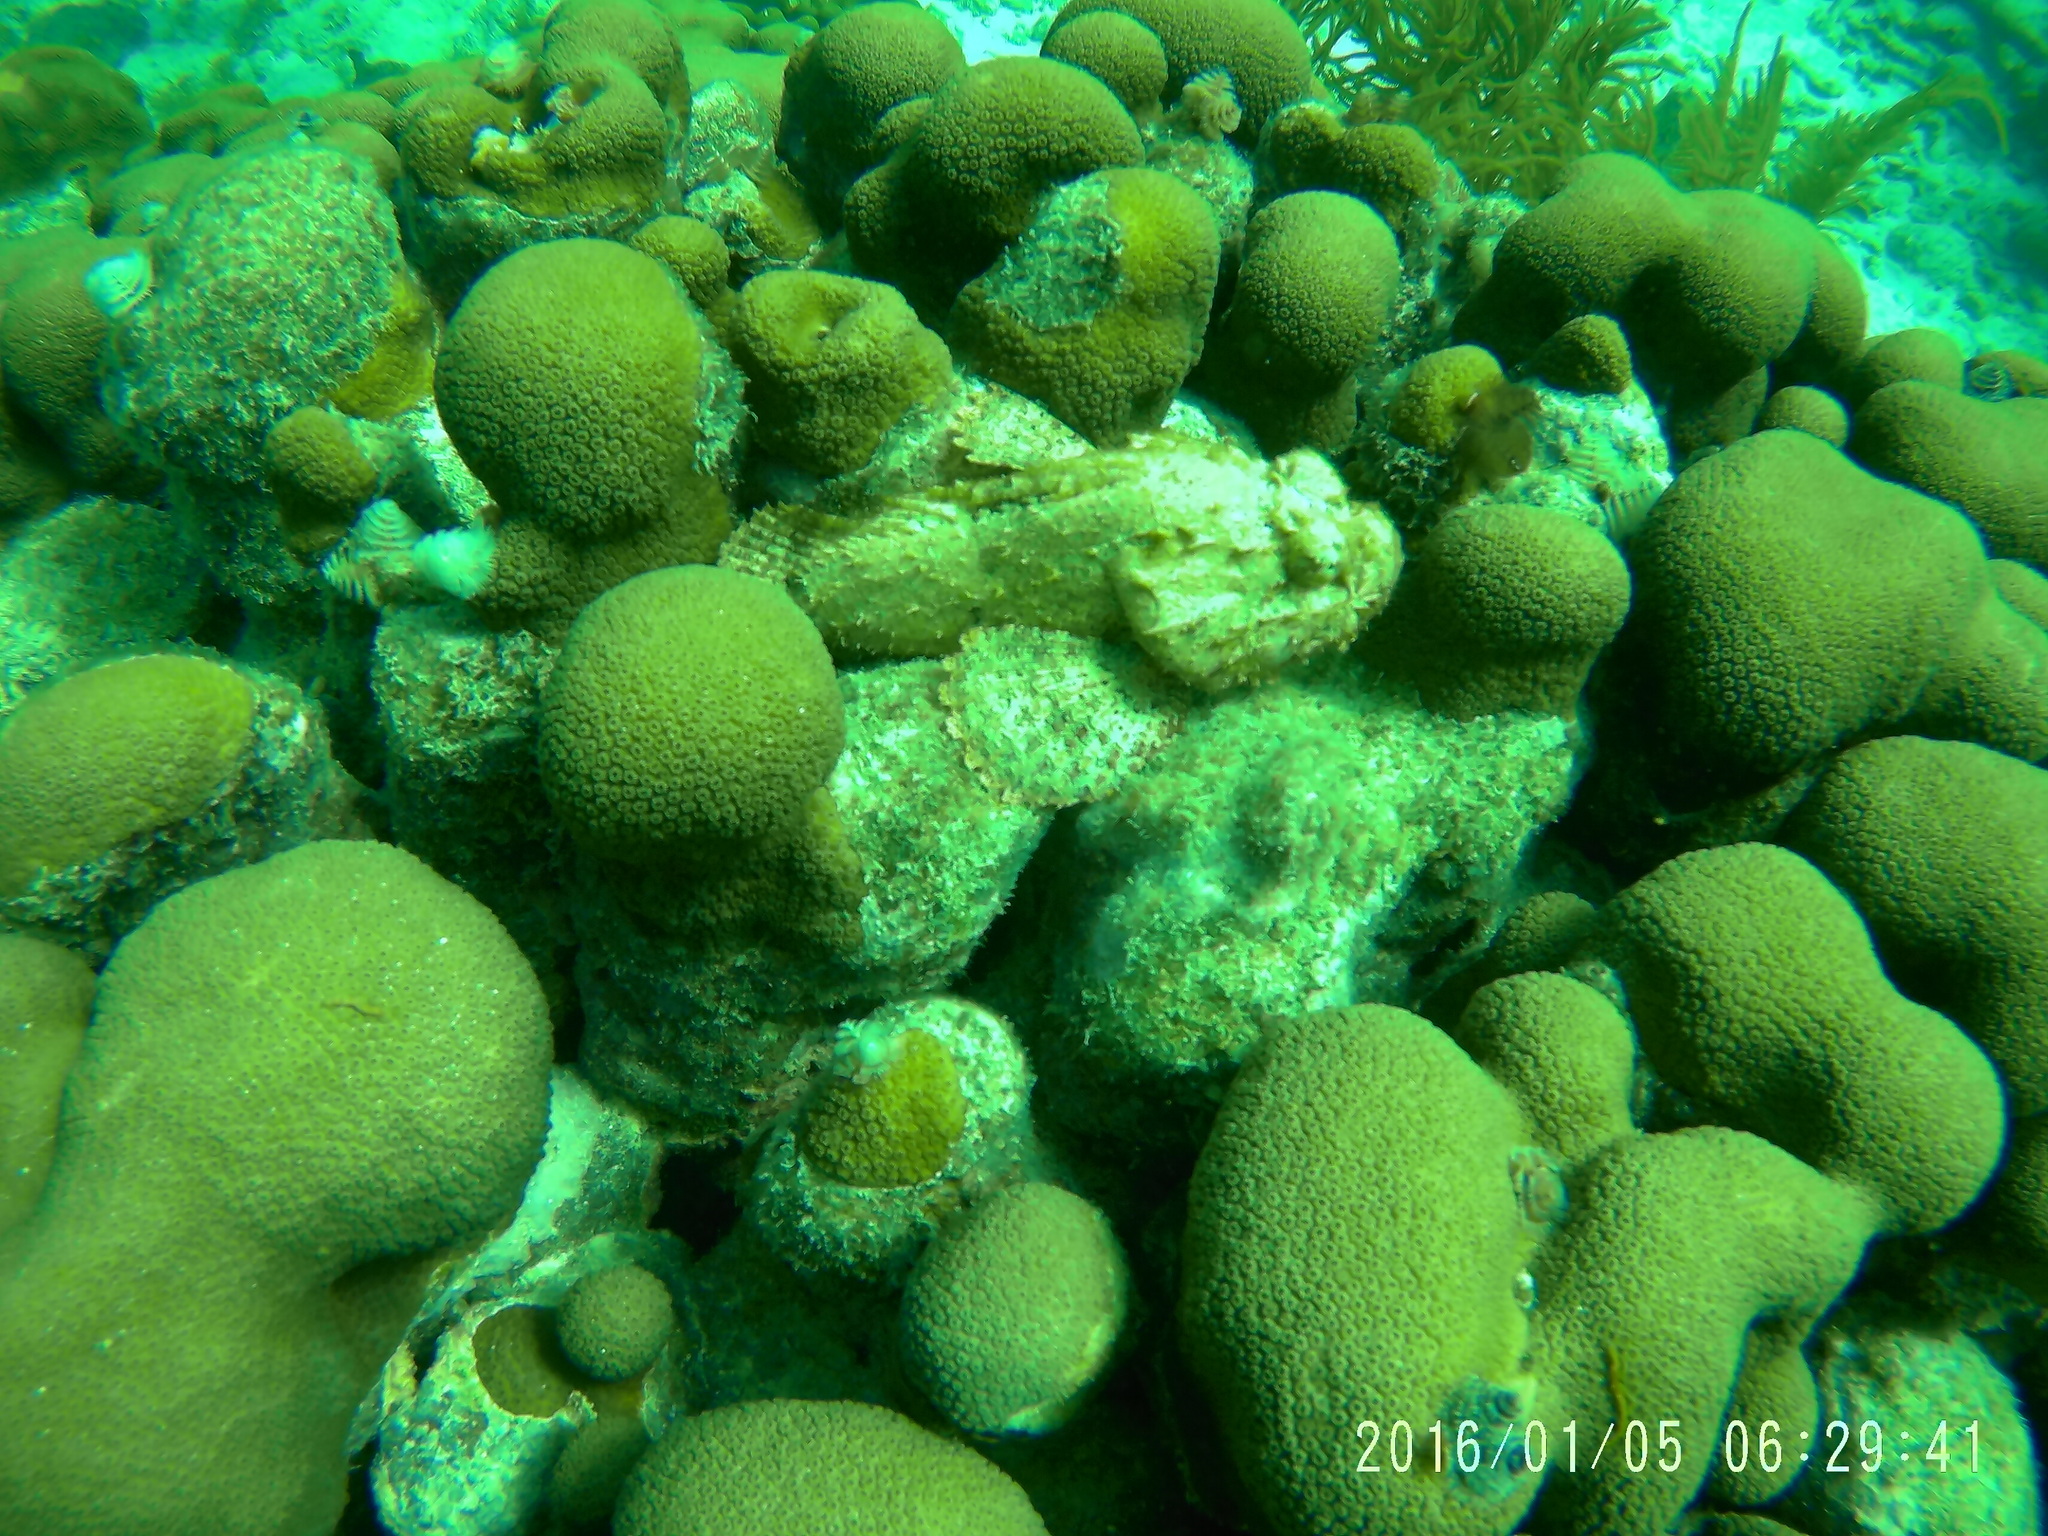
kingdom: Animalia
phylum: Chordata
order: Scorpaeniformes
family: Scorpaenidae
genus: Scorpaena
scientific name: Scorpaena plumieri
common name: Spotted scorpionfish
